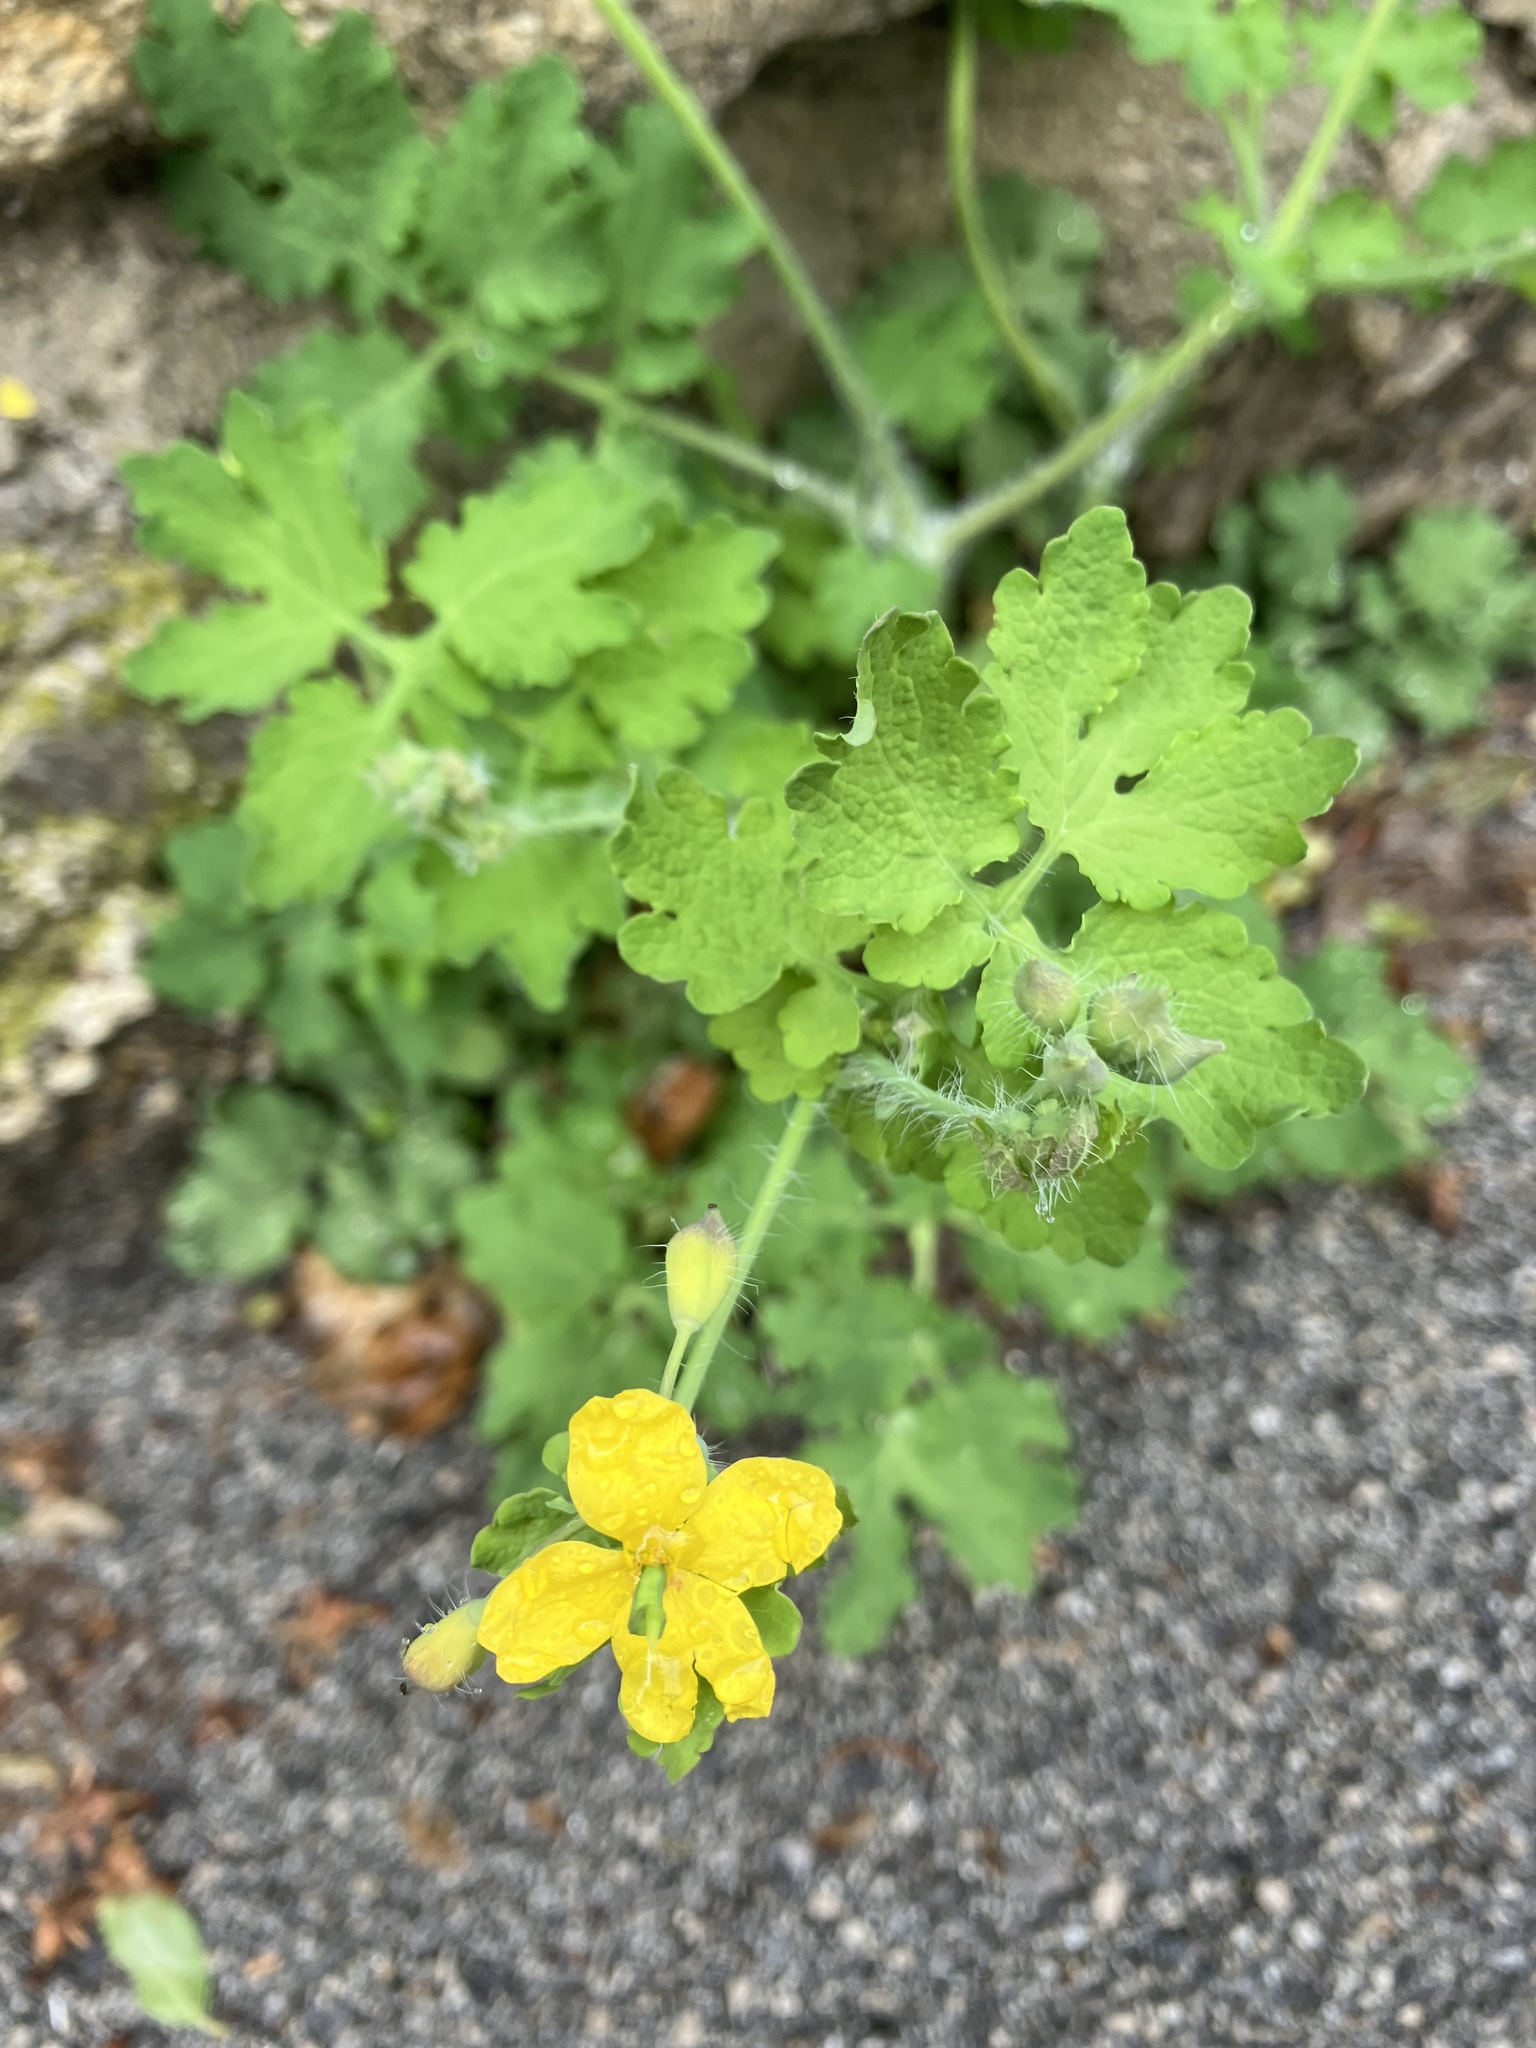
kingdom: Plantae
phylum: Tracheophyta
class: Magnoliopsida
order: Ranunculales
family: Papaveraceae
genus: Chelidonium
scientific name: Chelidonium majus
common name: Greater celandine
